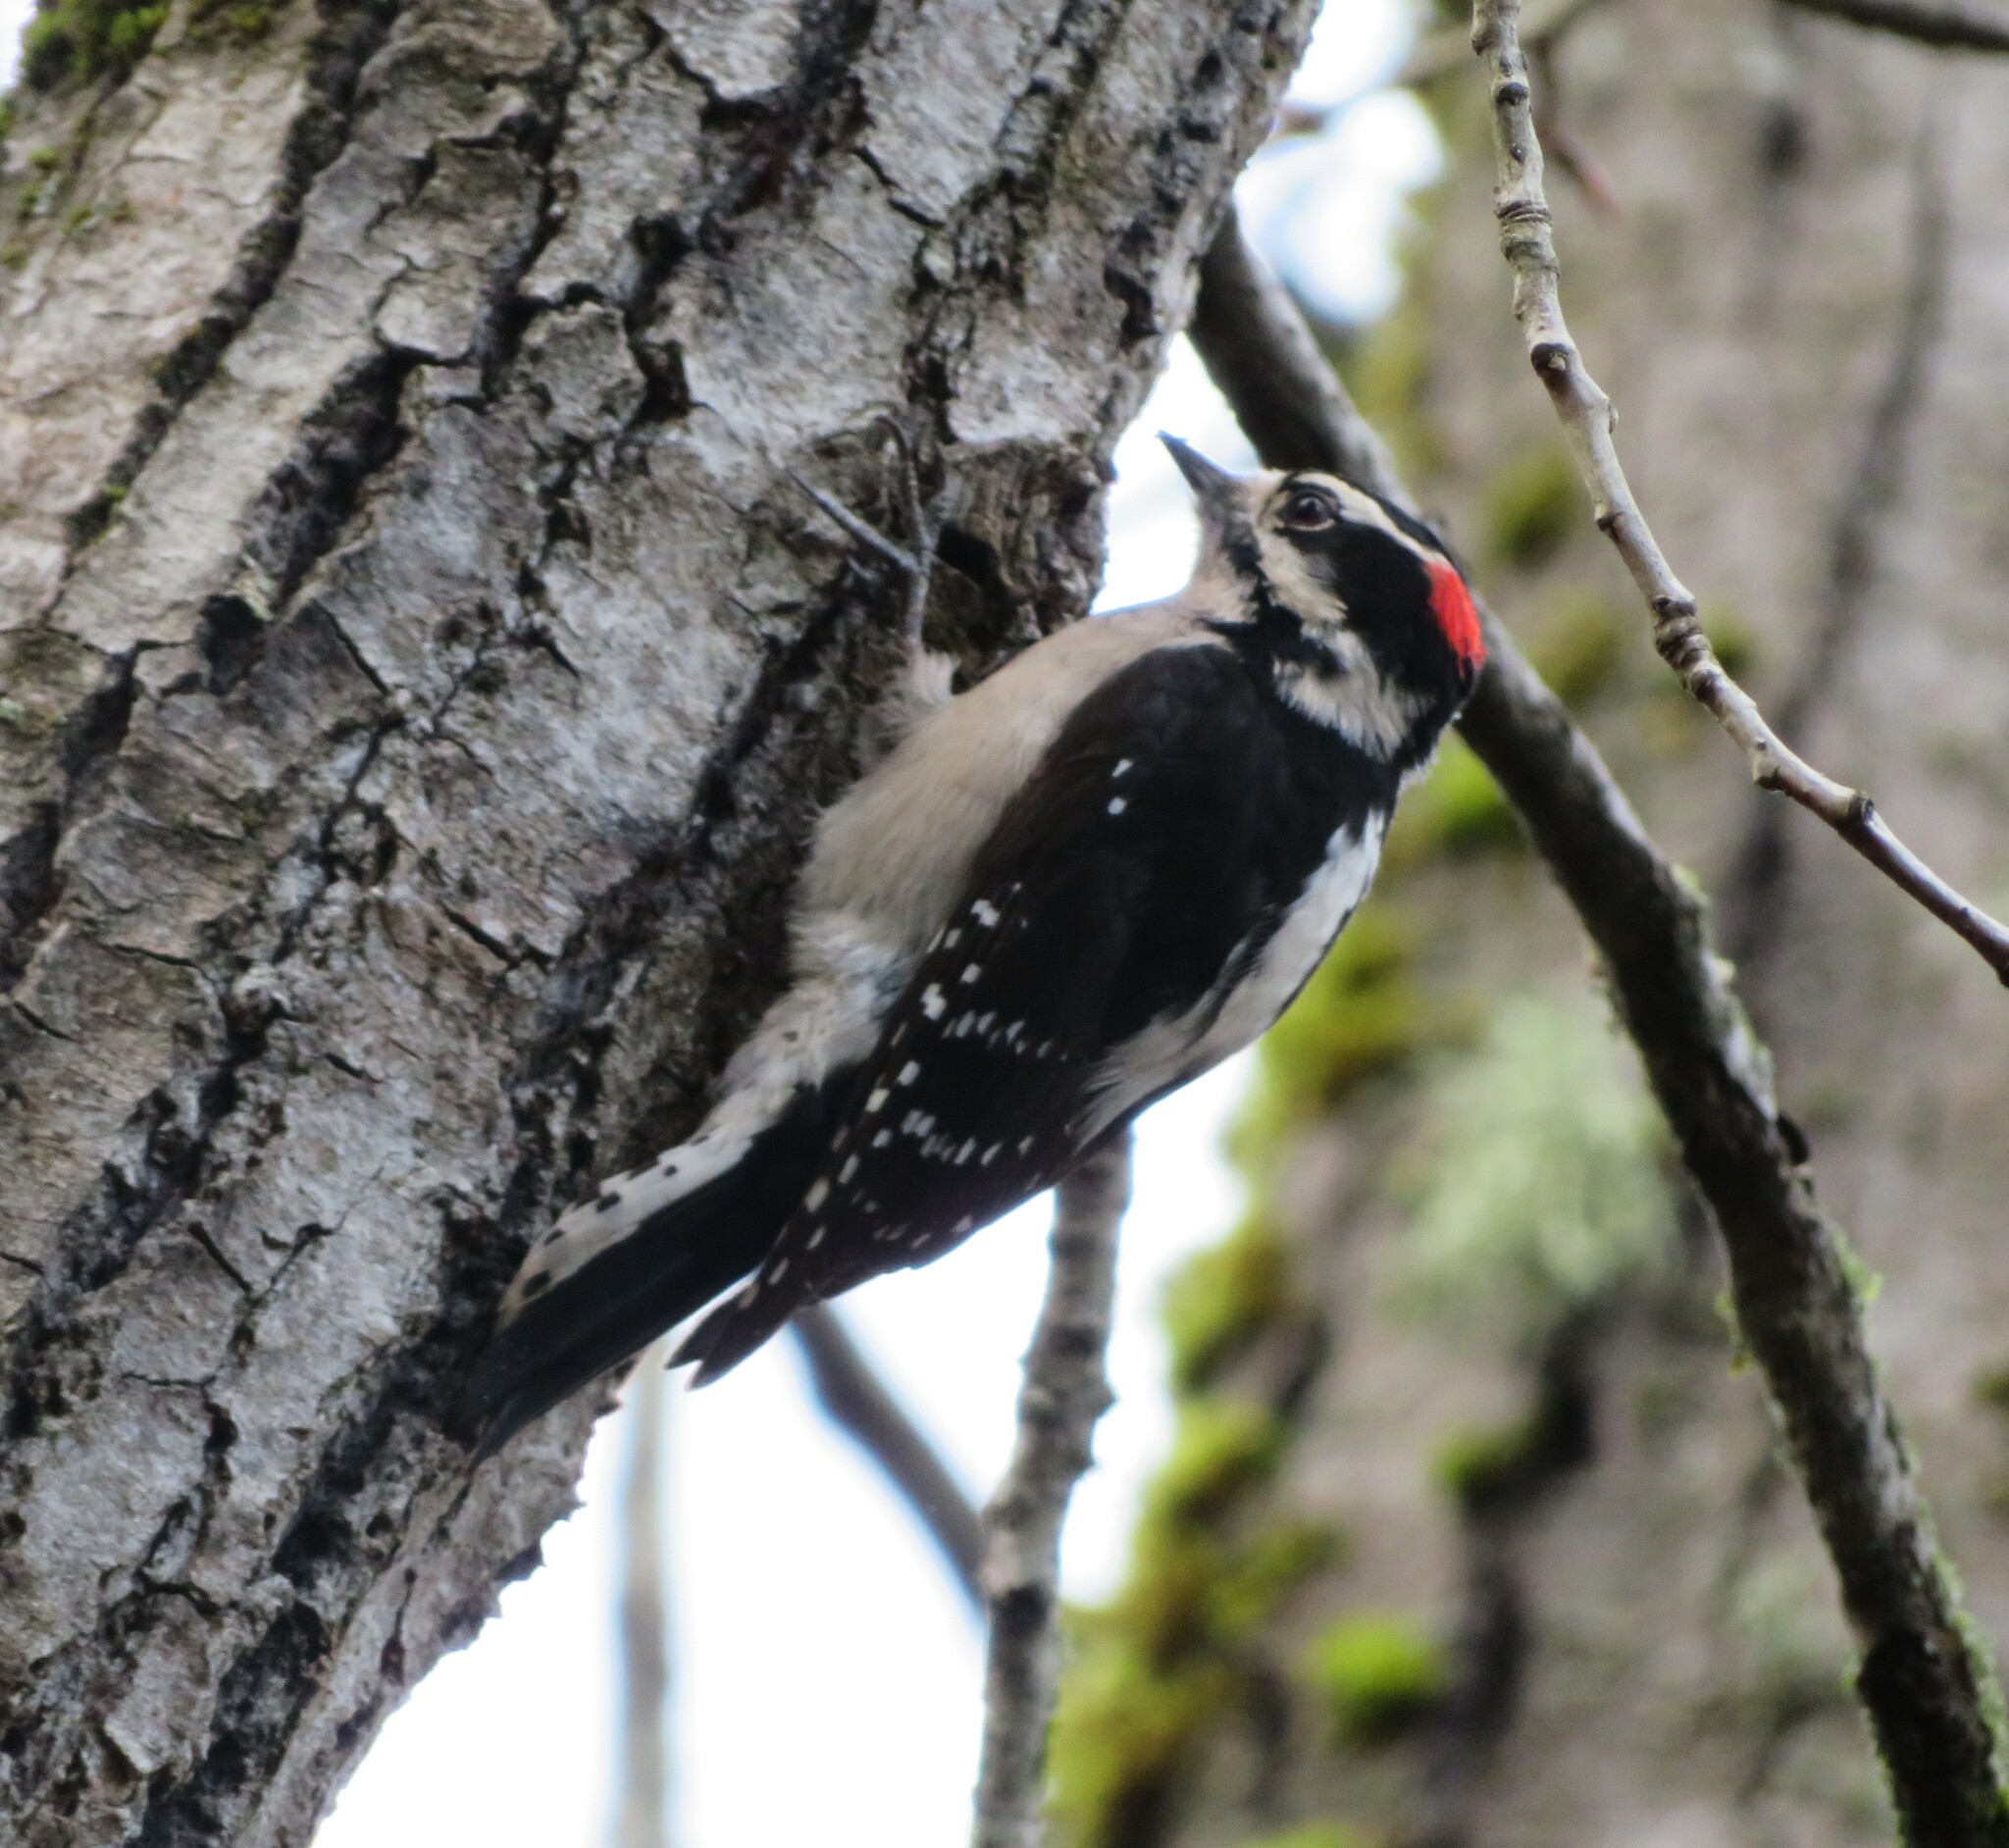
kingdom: Animalia
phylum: Chordata
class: Aves
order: Piciformes
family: Picidae
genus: Dryobates
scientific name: Dryobates pubescens
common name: Downy woodpecker
